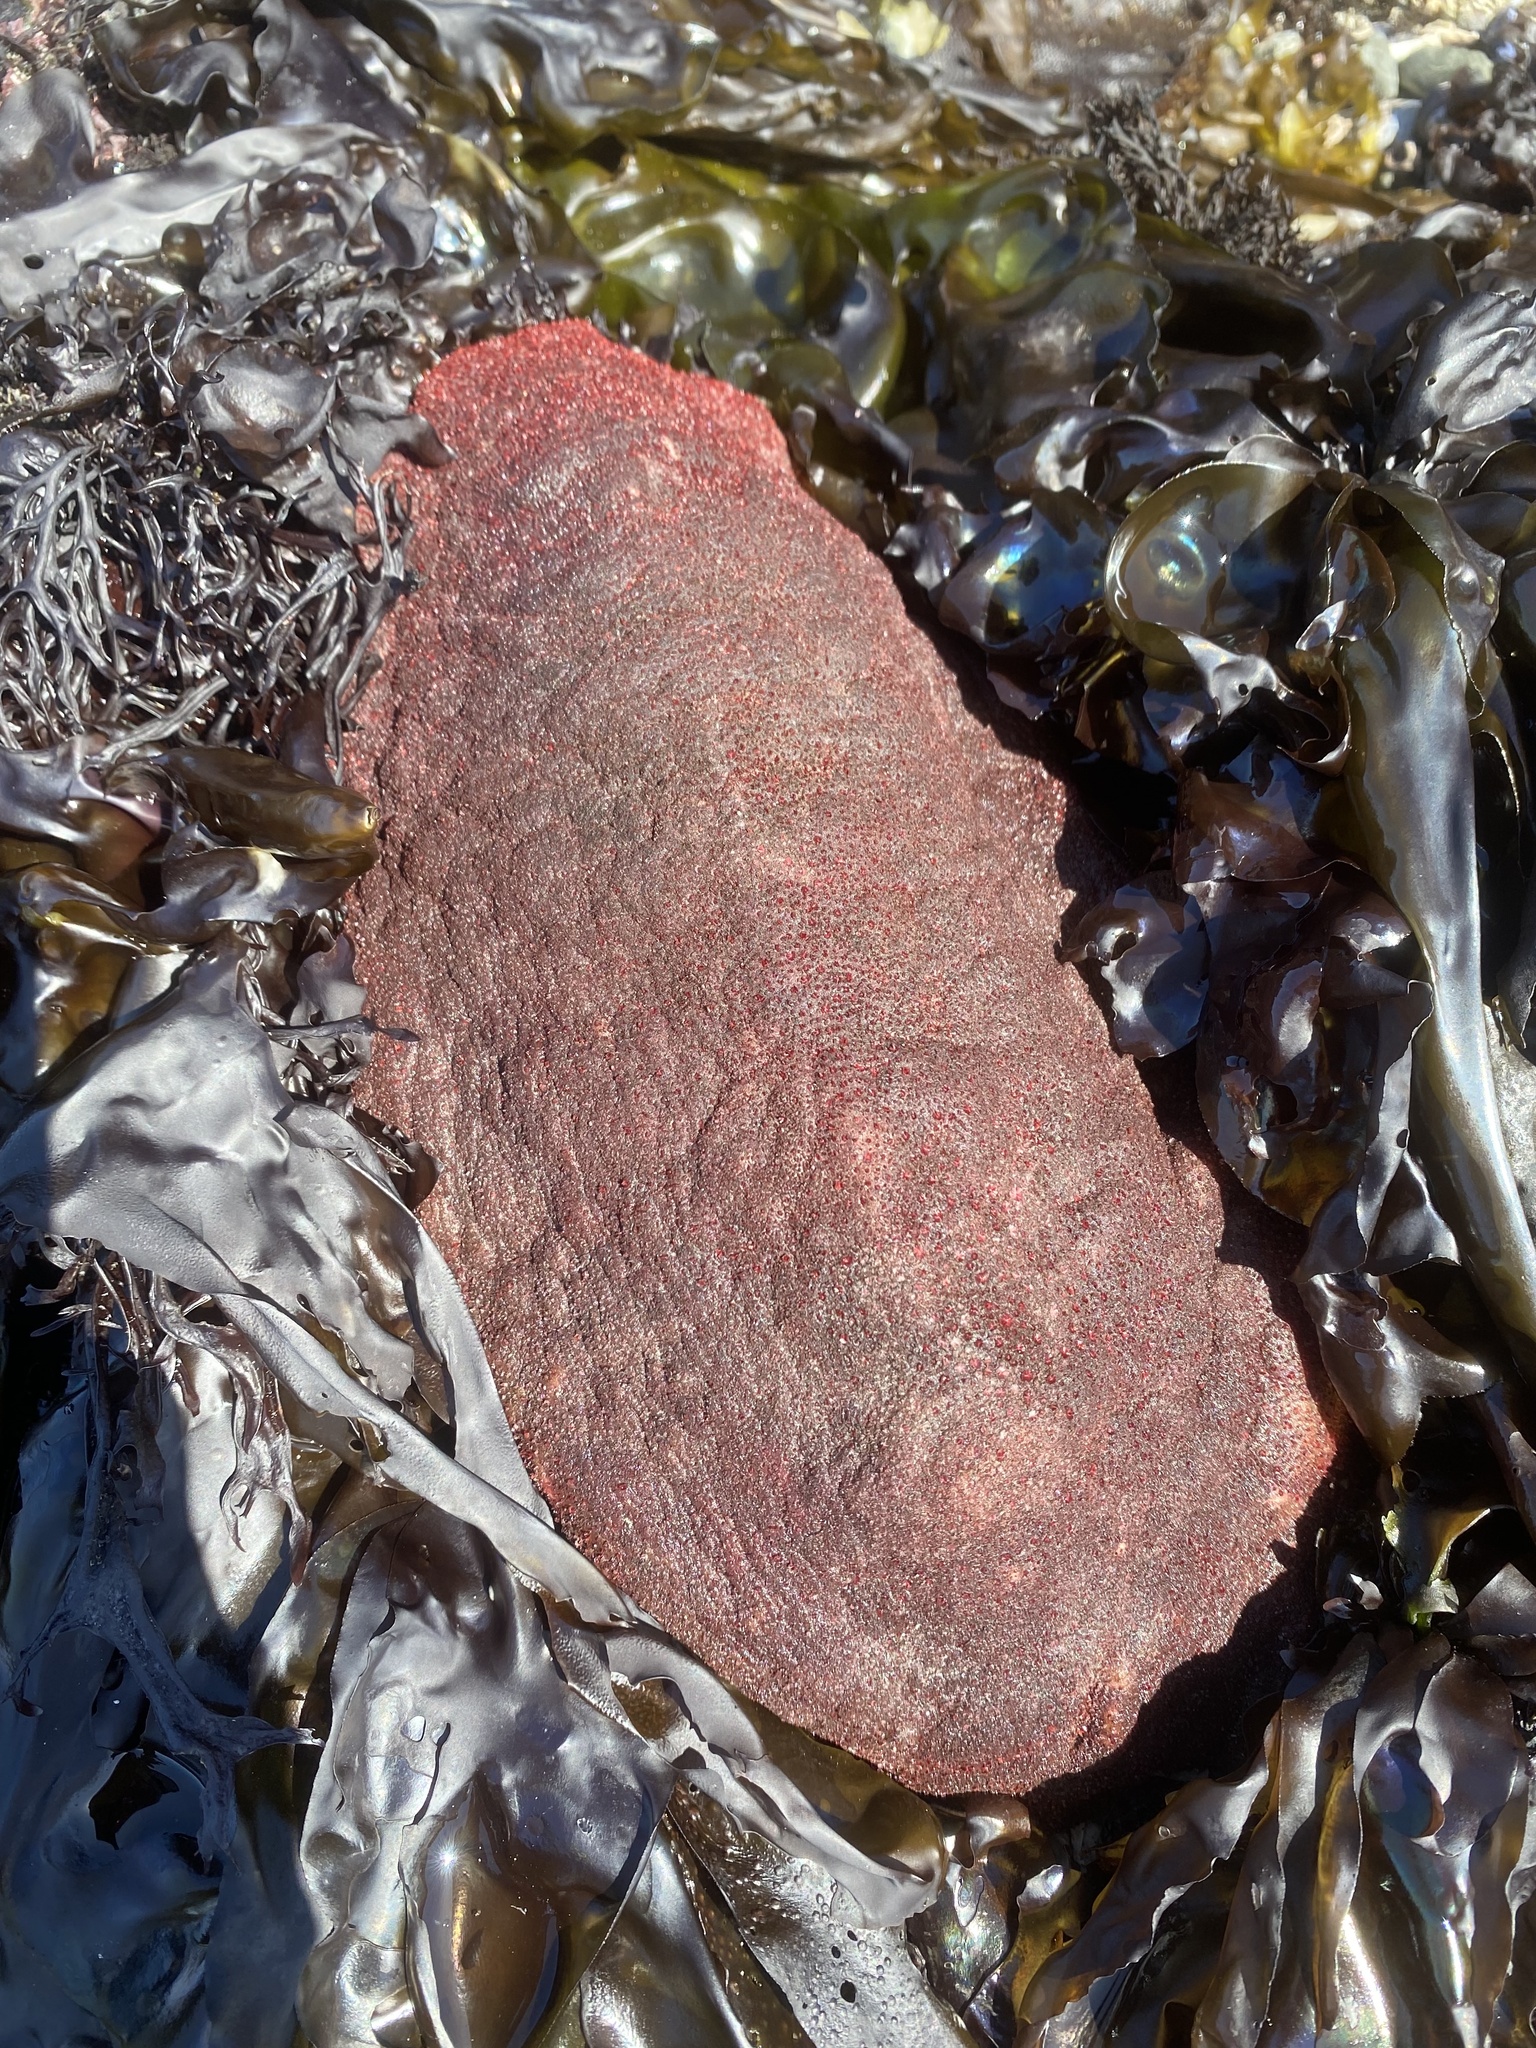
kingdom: Animalia
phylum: Mollusca
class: Polyplacophora
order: Chitonida
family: Acanthochitonidae
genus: Cryptochiton
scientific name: Cryptochiton stelleri
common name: Giant pacific chiton
